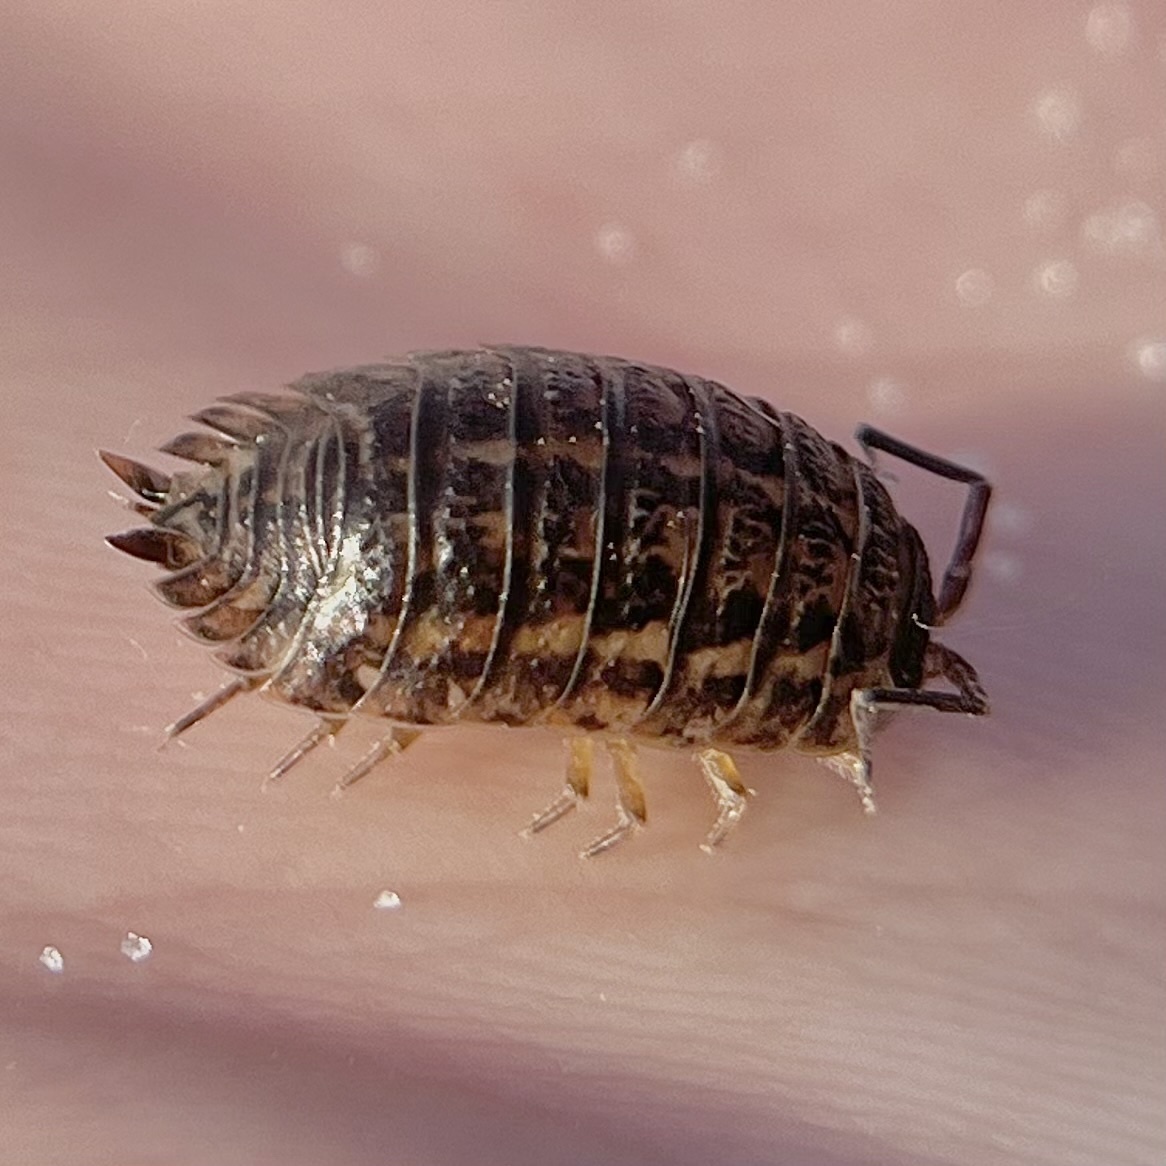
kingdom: Animalia
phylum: Arthropoda
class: Malacostraca
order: Isopoda
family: Trachelipodidae
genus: Trachelipus
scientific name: Trachelipus rathkii
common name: Isopod
